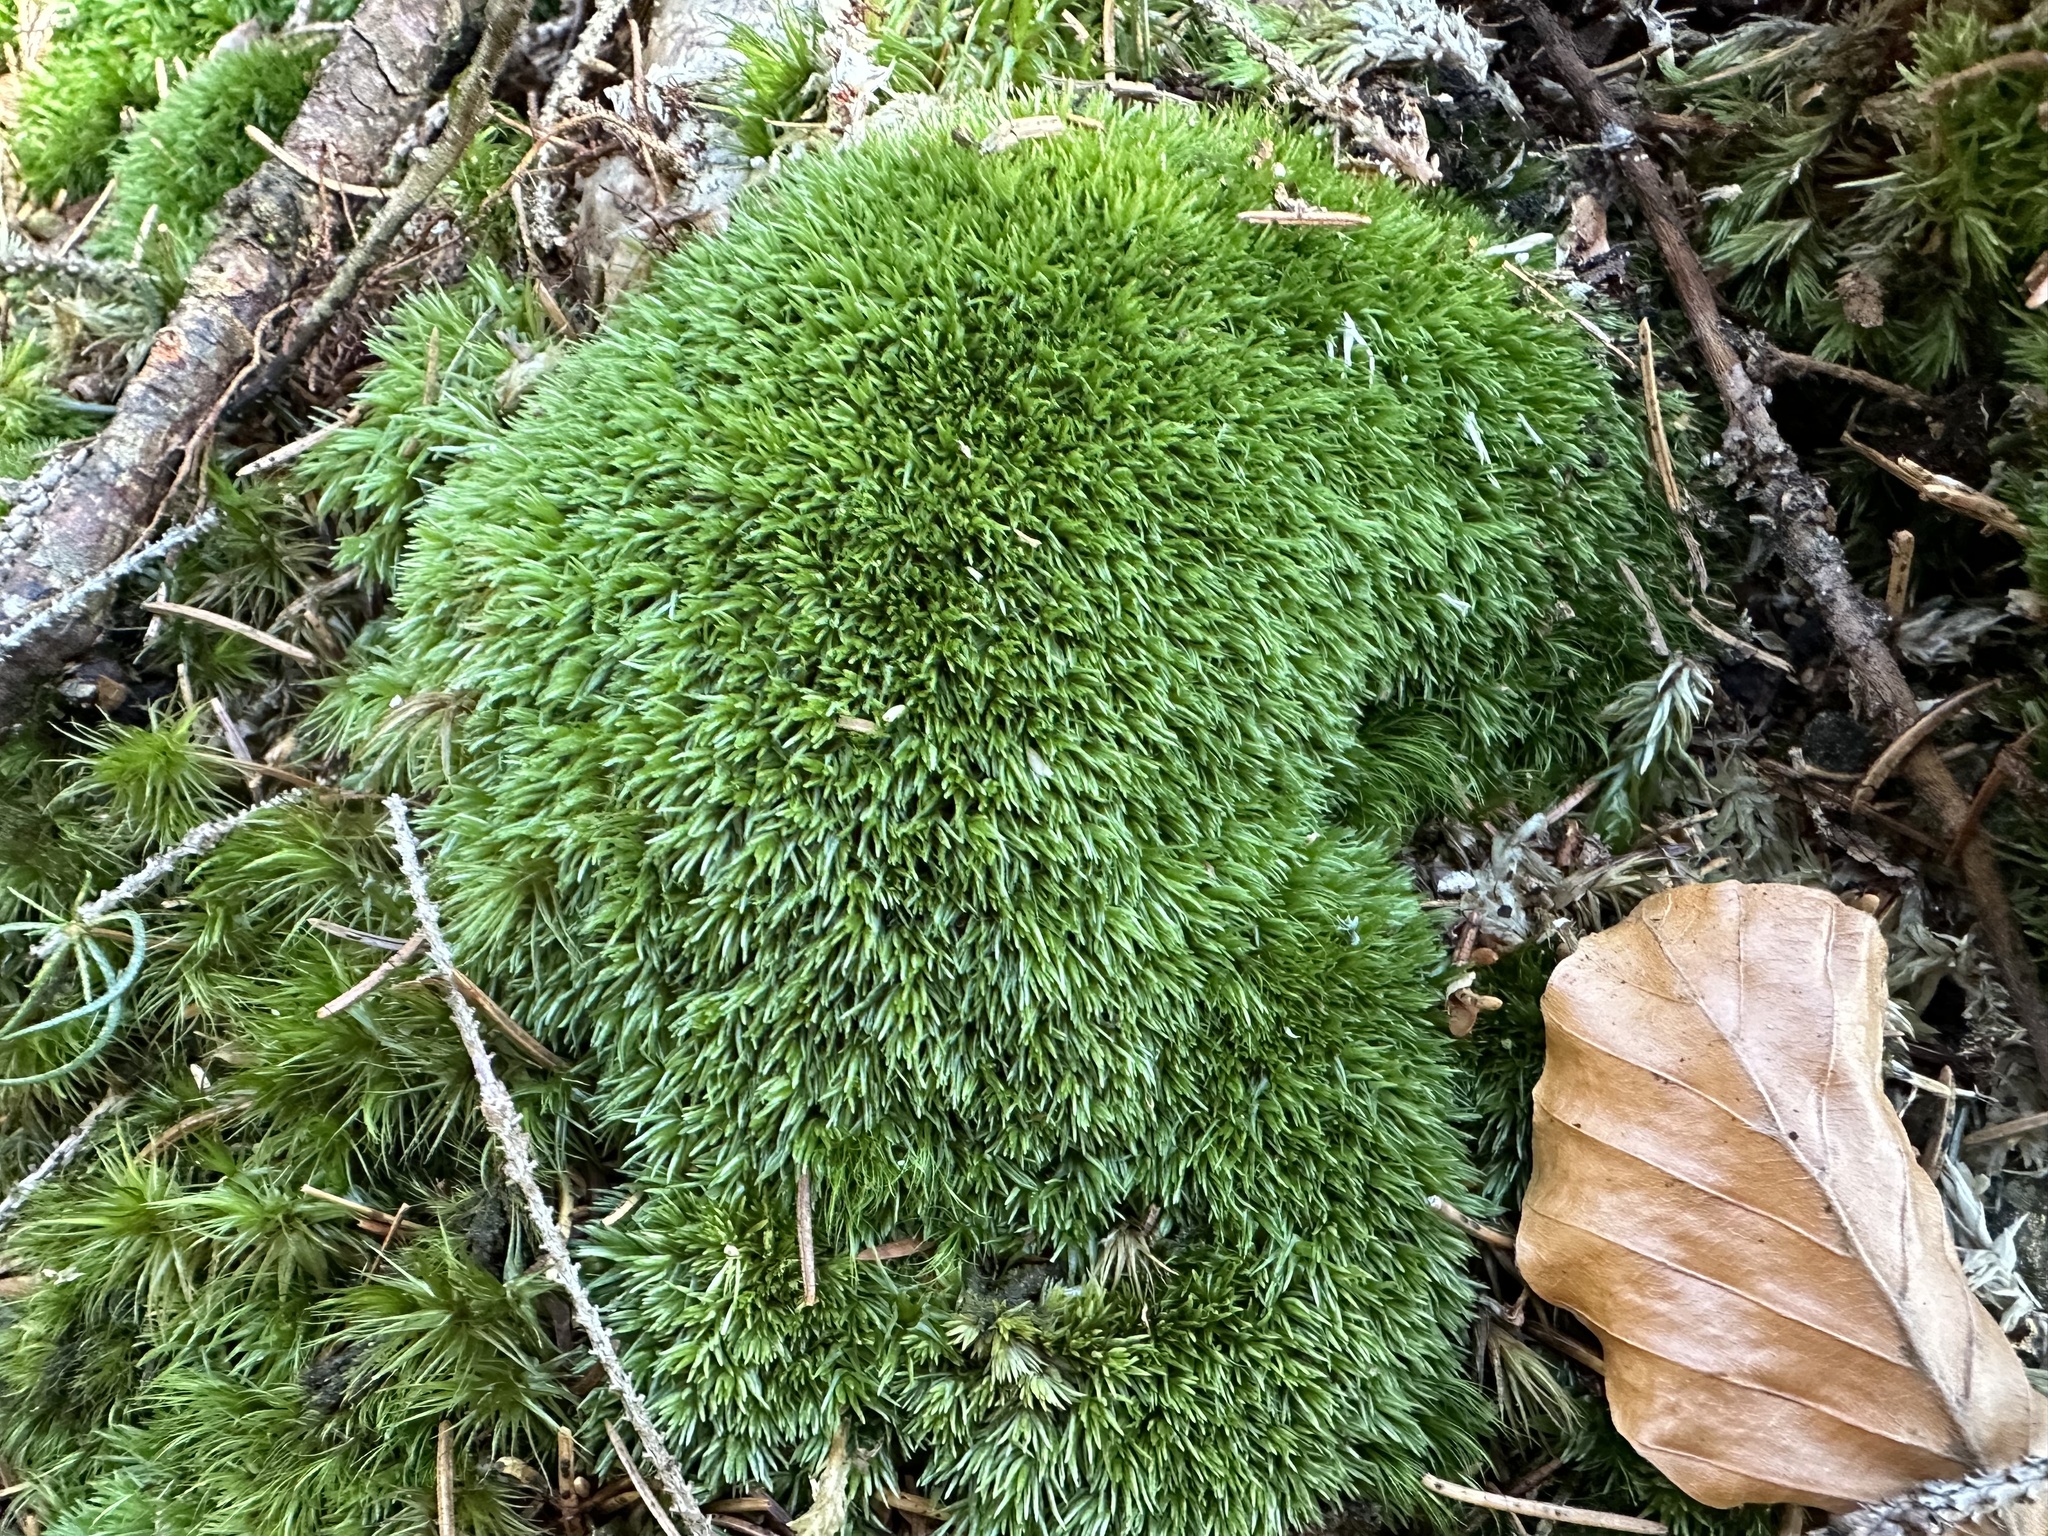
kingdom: Plantae
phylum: Bryophyta
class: Bryopsida
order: Dicranales
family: Leucobryaceae
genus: Leucobryum
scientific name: Leucobryum glaucum
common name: Large white-moss
